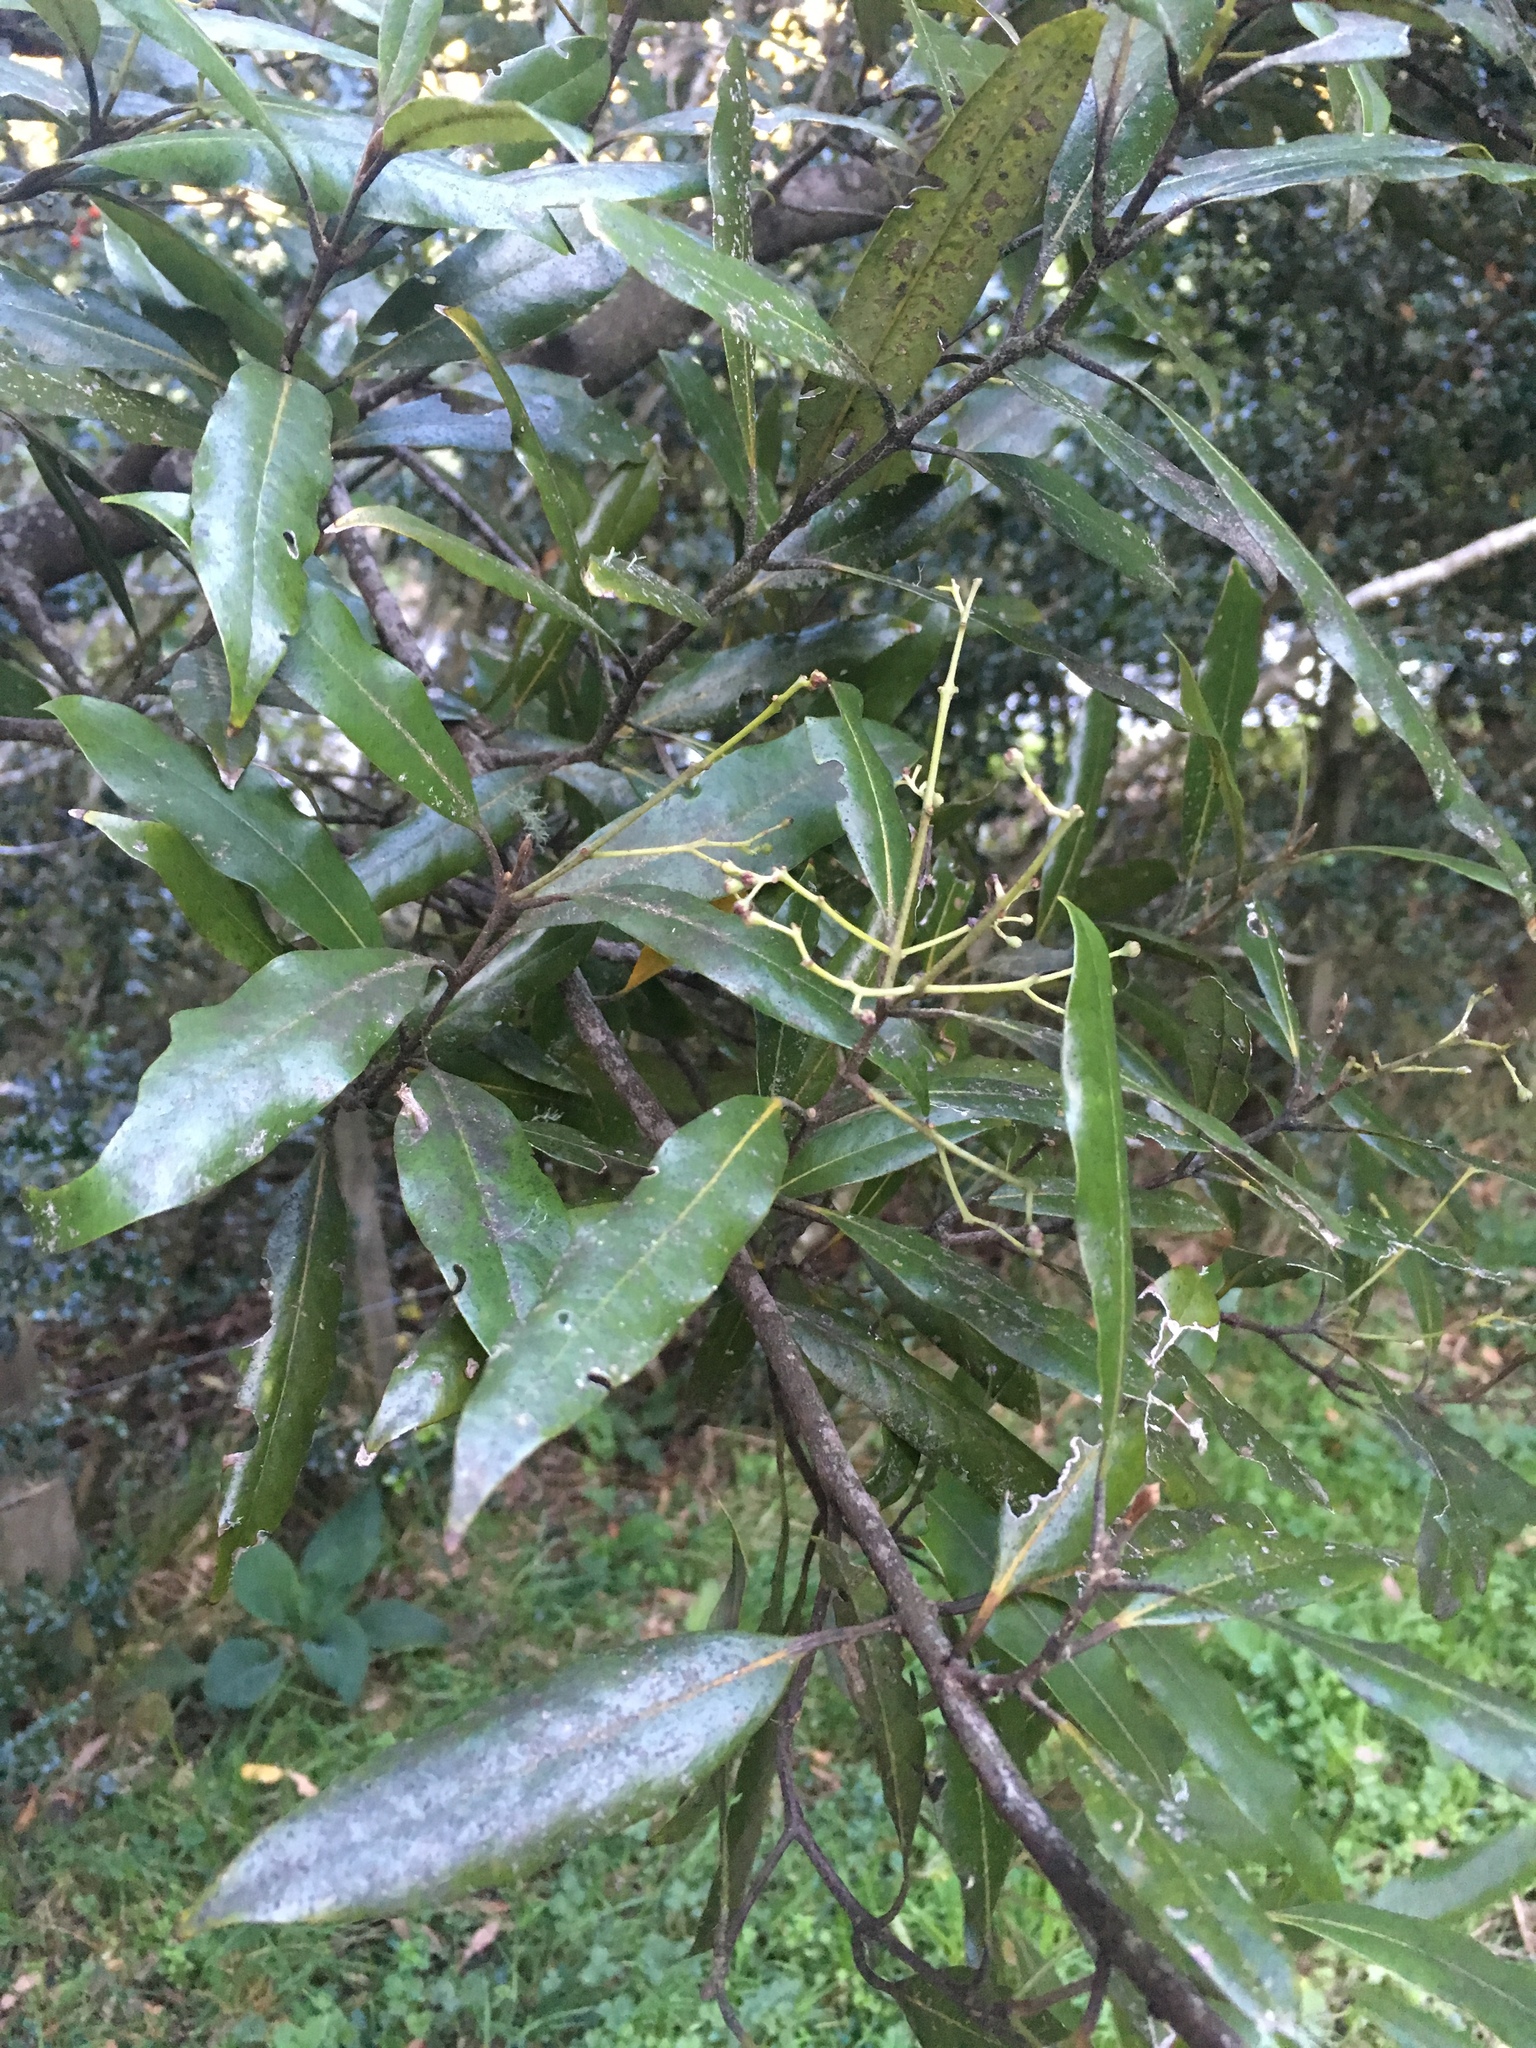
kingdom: Plantae
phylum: Tracheophyta
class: Magnoliopsida
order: Laurales
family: Lauraceae
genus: Beilschmiedia
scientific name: Beilschmiedia tawa
